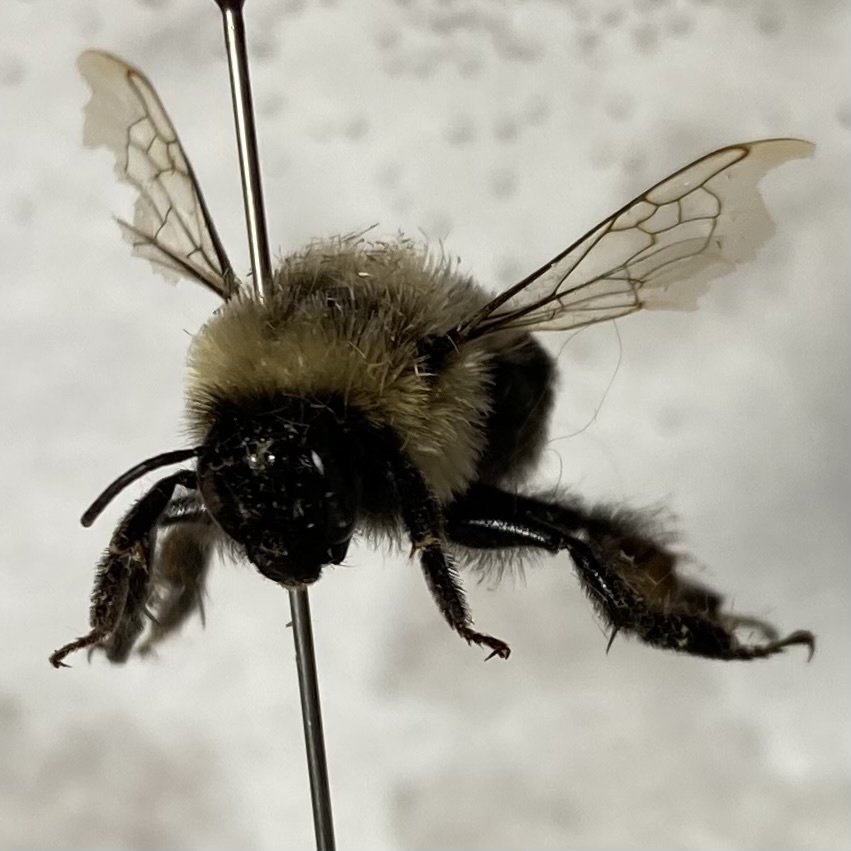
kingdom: Animalia
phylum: Arthropoda
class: Insecta
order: Hymenoptera
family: Apidae
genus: Bombus
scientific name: Bombus impatiens
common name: Common eastern bumble bee
